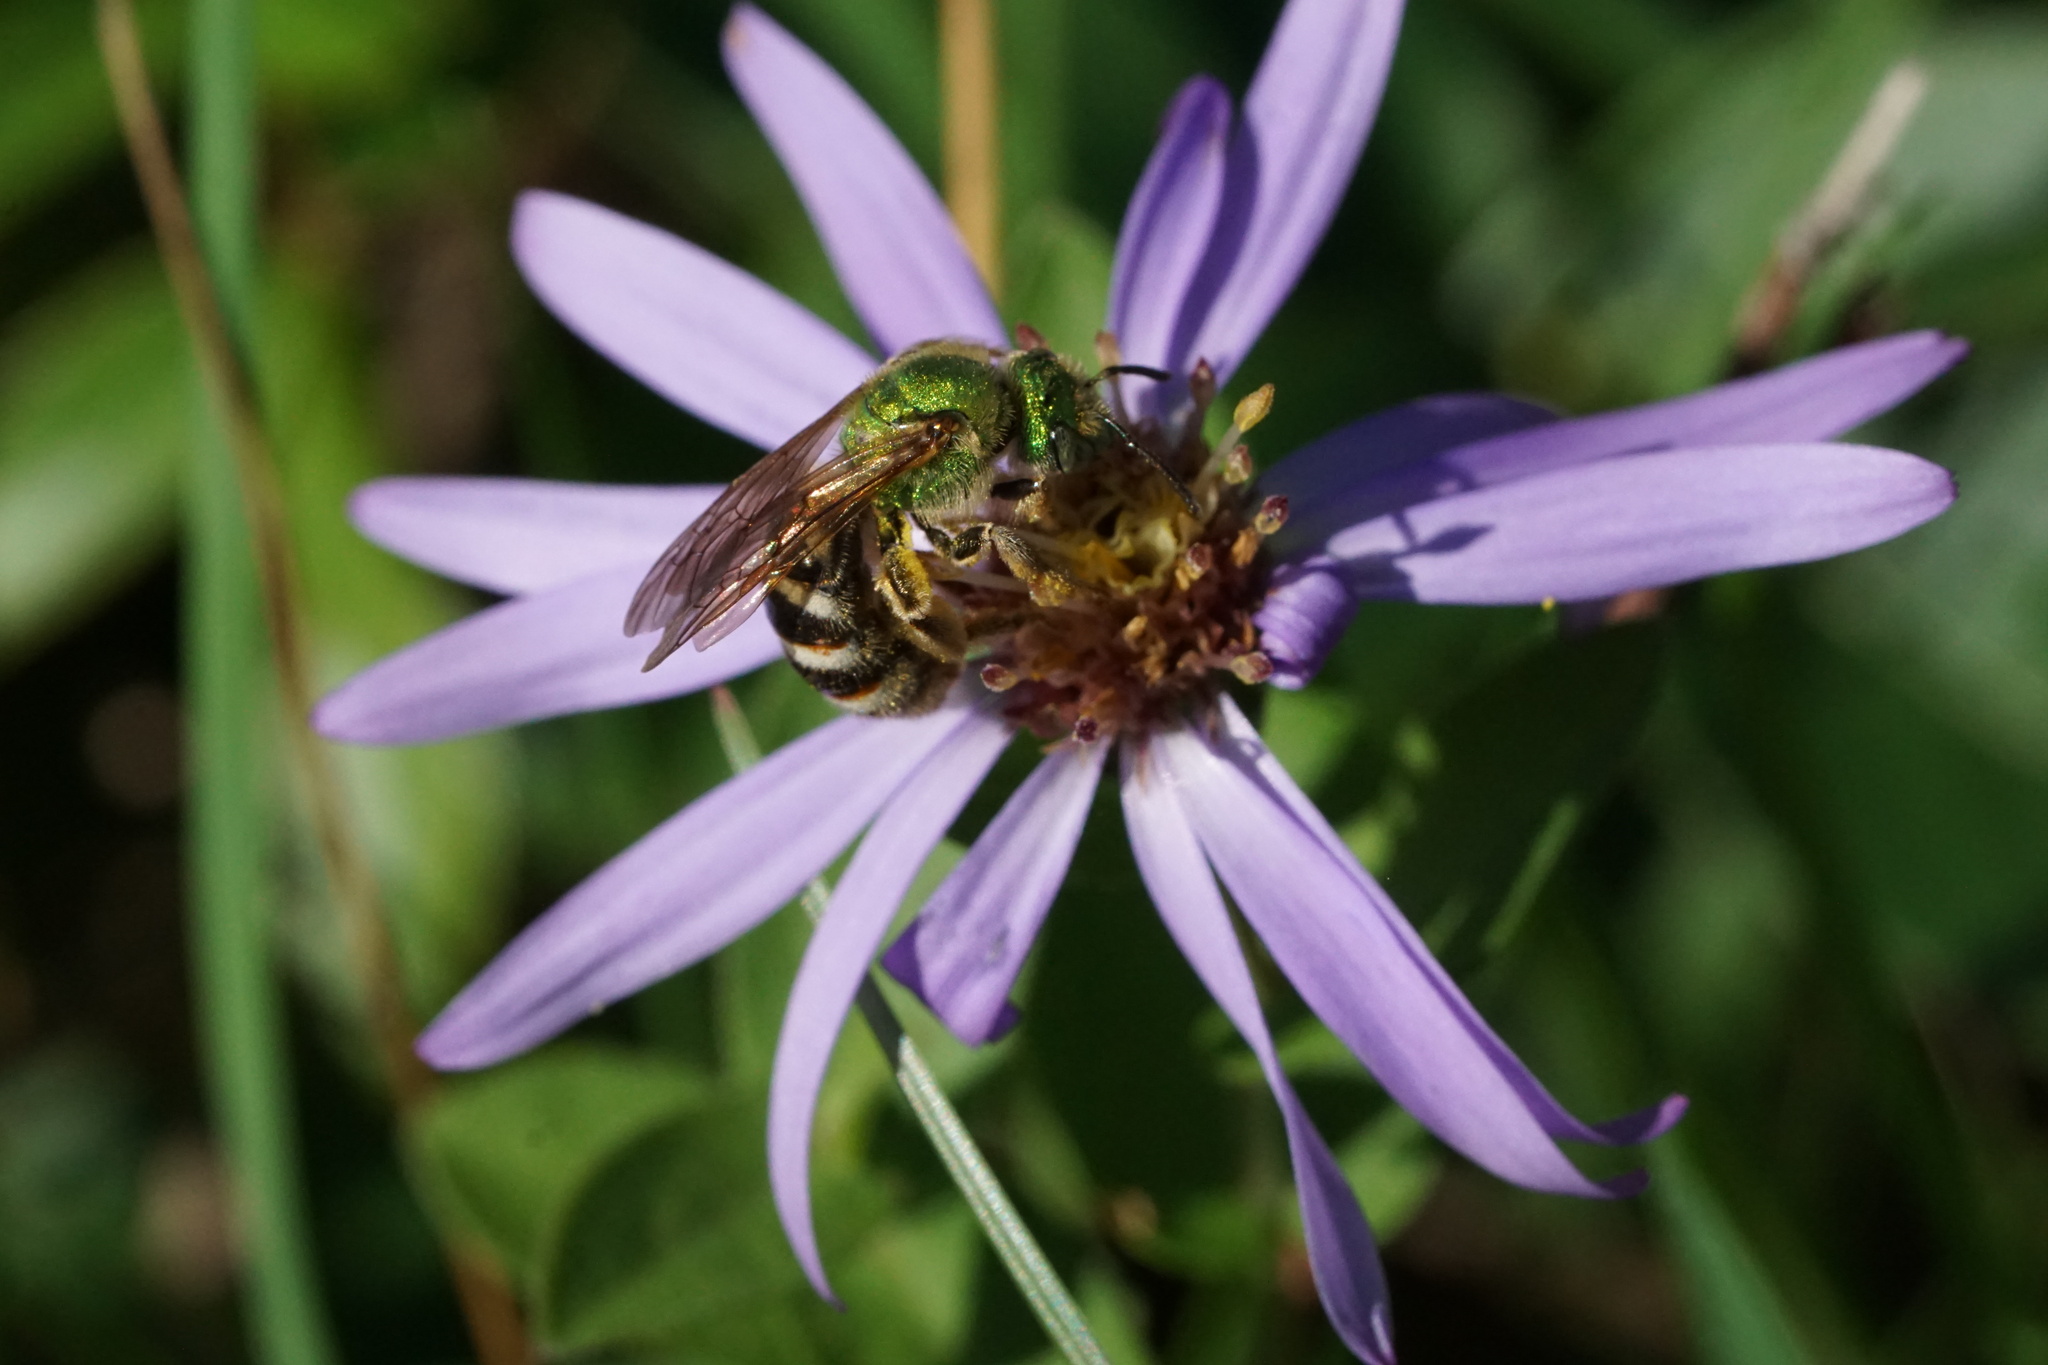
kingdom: Animalia
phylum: Arthropoda
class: Insecta
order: Hymenoptera
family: Halictidae
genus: Agapostemon
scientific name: Agapostemon virescens
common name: Bicolored striped sweat bee
